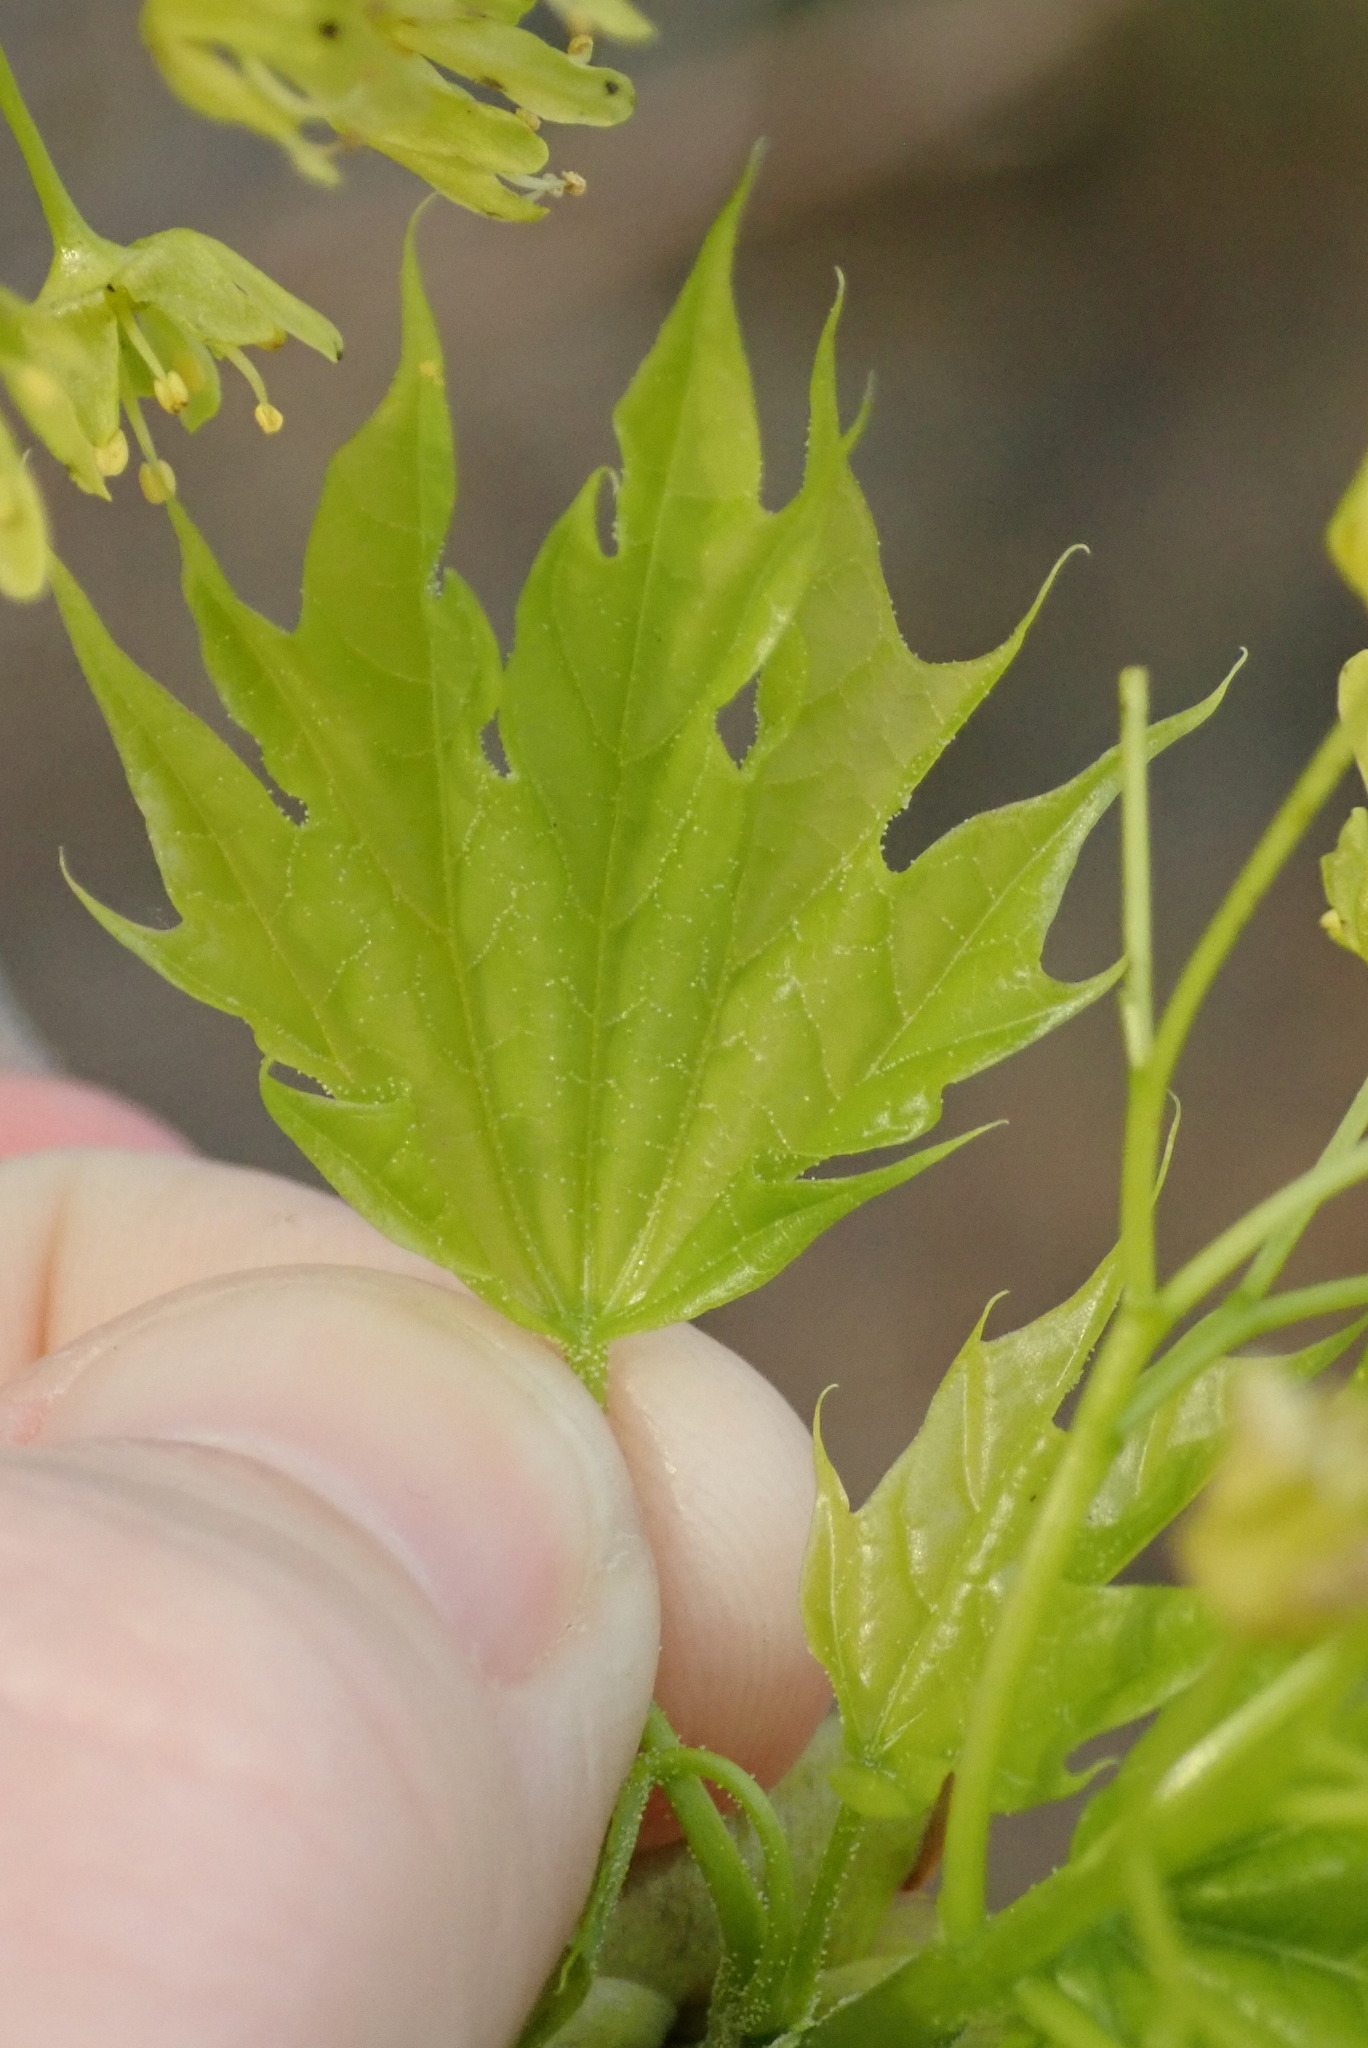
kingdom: Plantae
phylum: Tracheophyta
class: Magnoliopsida
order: Sapindales
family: Sapindaceae
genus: Acer
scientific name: Acer platanoides
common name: Norway maple
